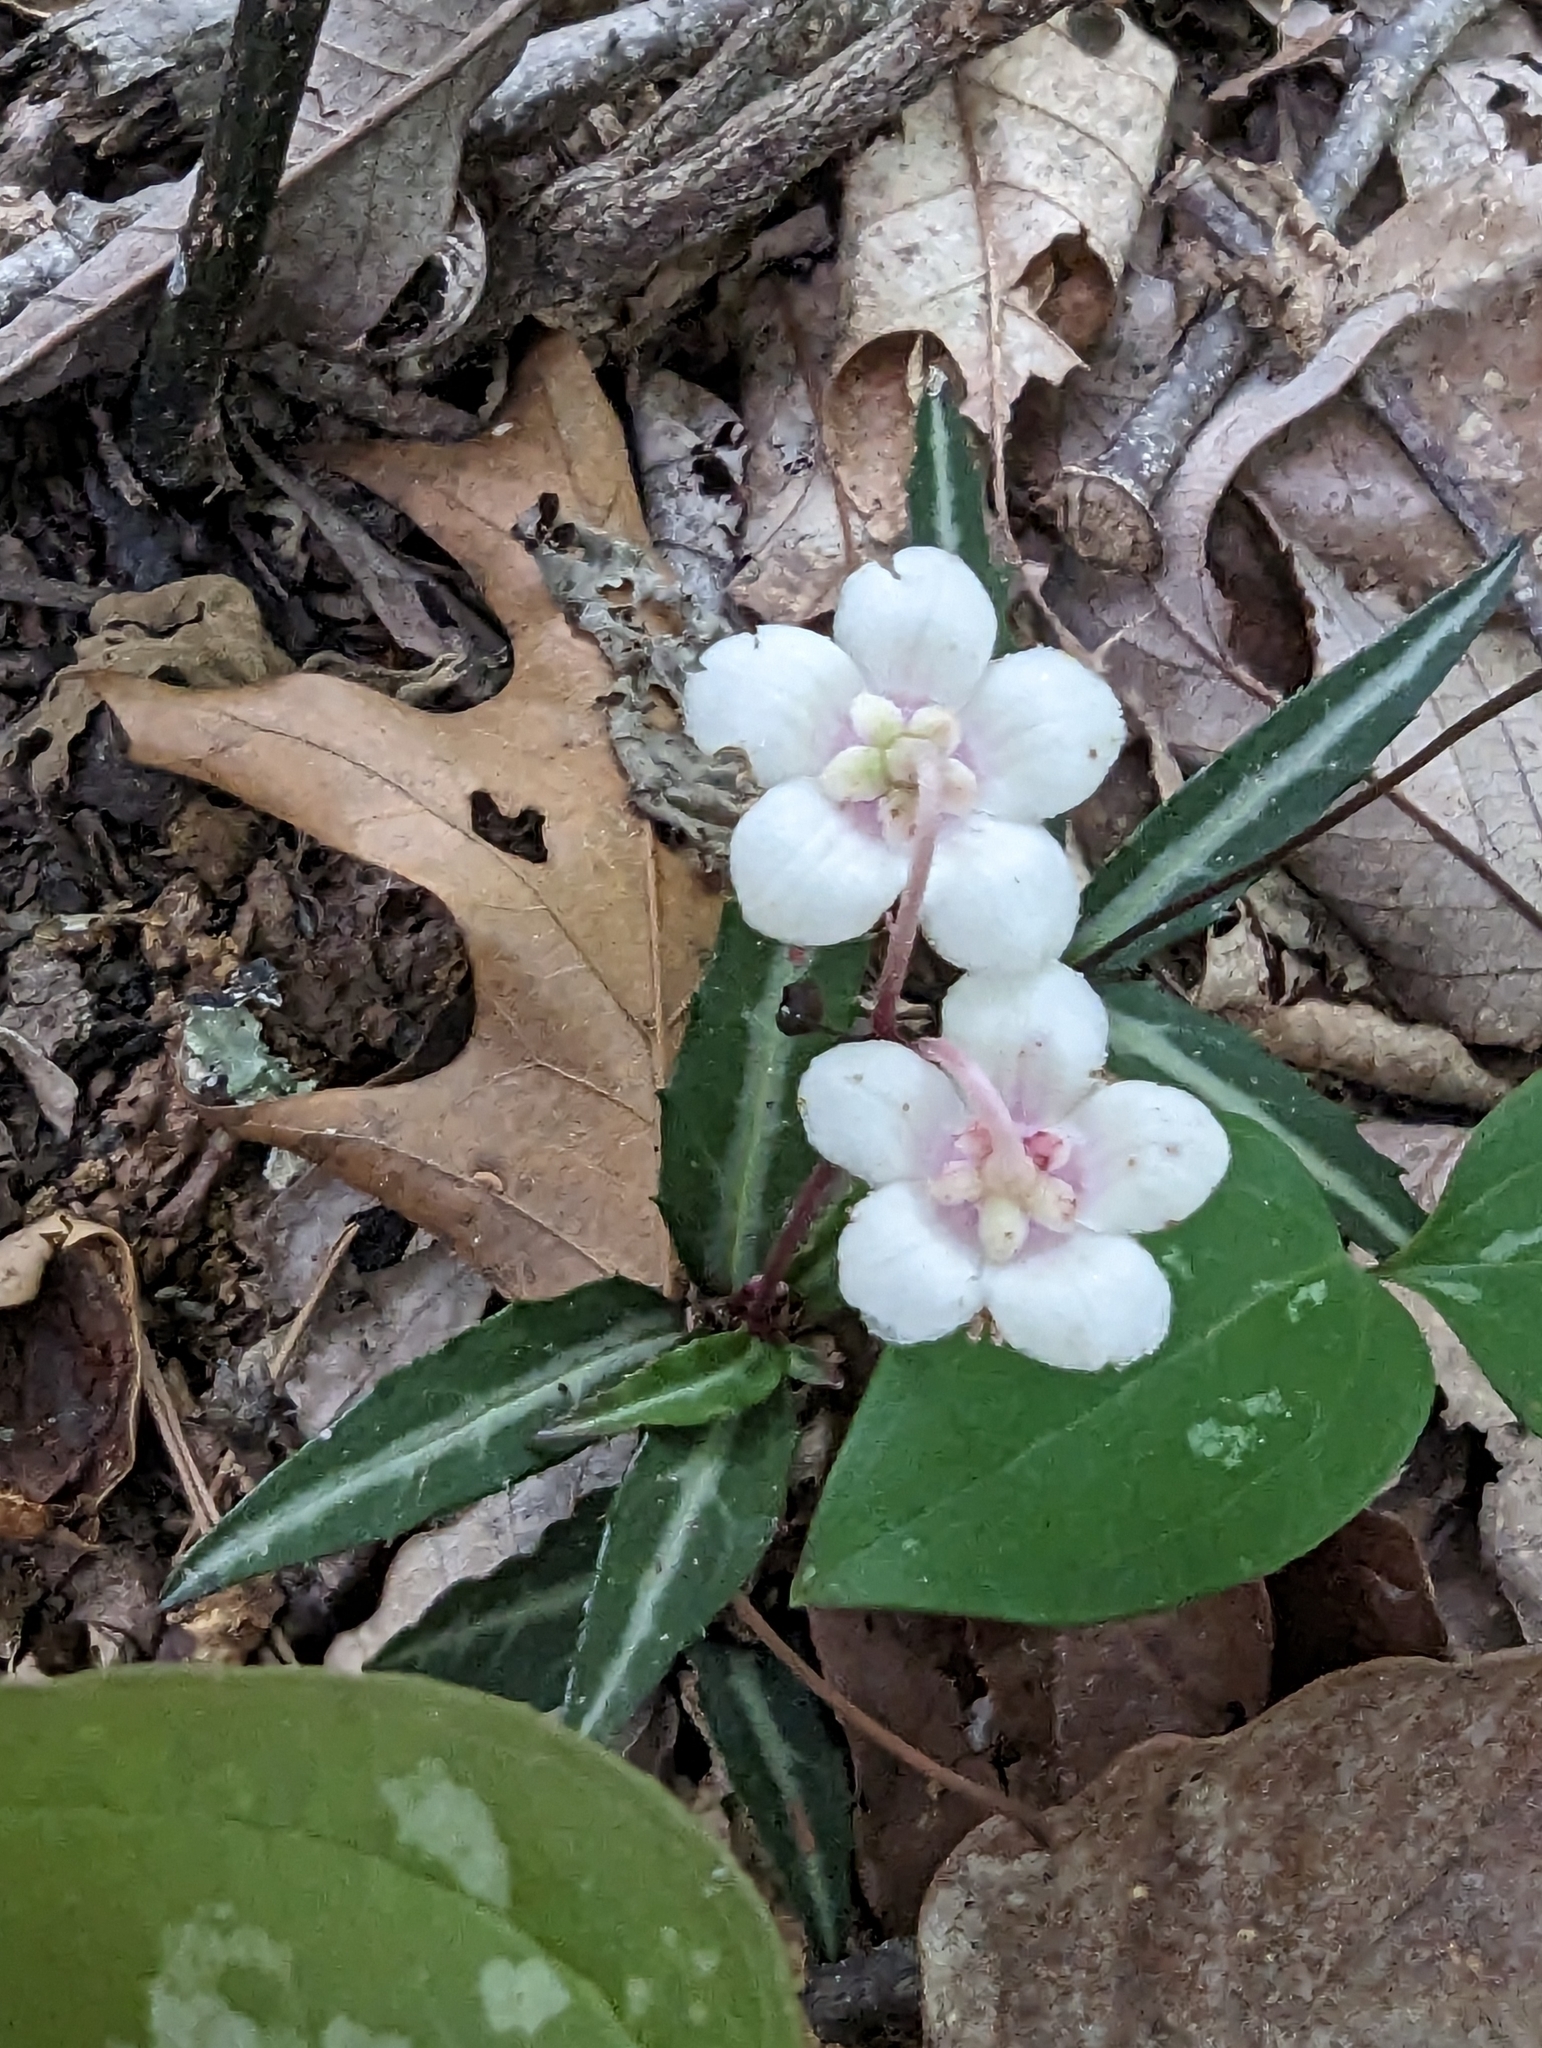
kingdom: Plantae
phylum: Tracheophyta
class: Magnoliopsida
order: Ericales
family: Ericaceae
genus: Chimaphila
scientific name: Chimaphila maculata
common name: Spotted pipsissewa
